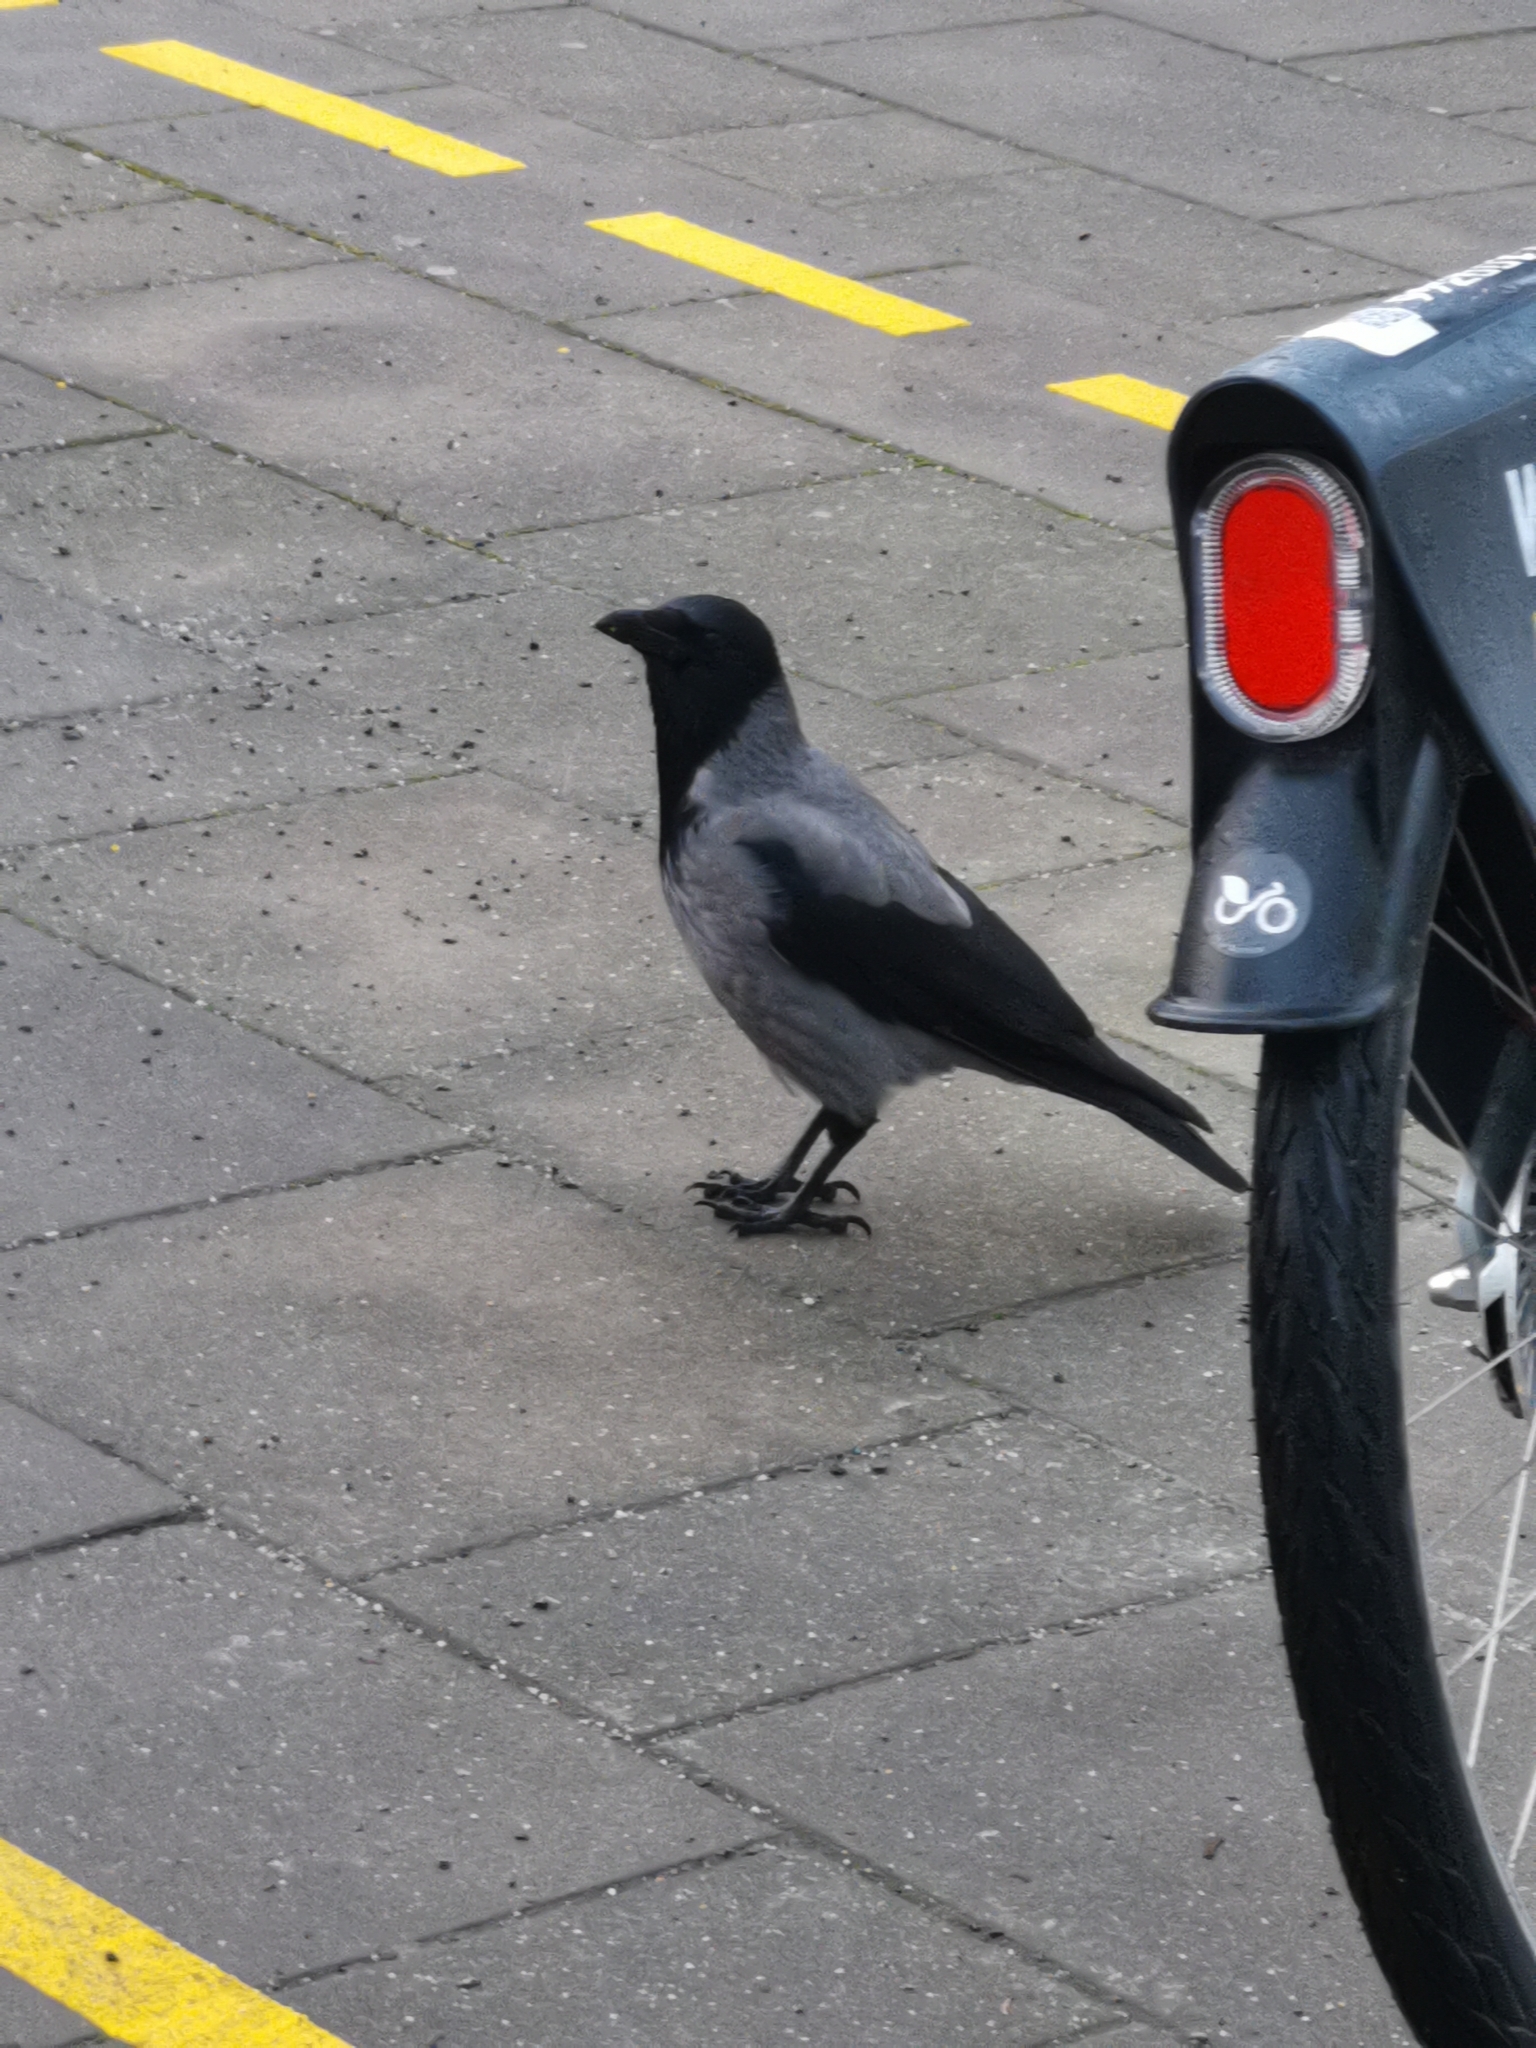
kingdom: Animalia
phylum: Chordata
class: Aves
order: Passeriformes
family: Corvidae
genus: Corvus
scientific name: Corvus cornix
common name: Hooded crow
